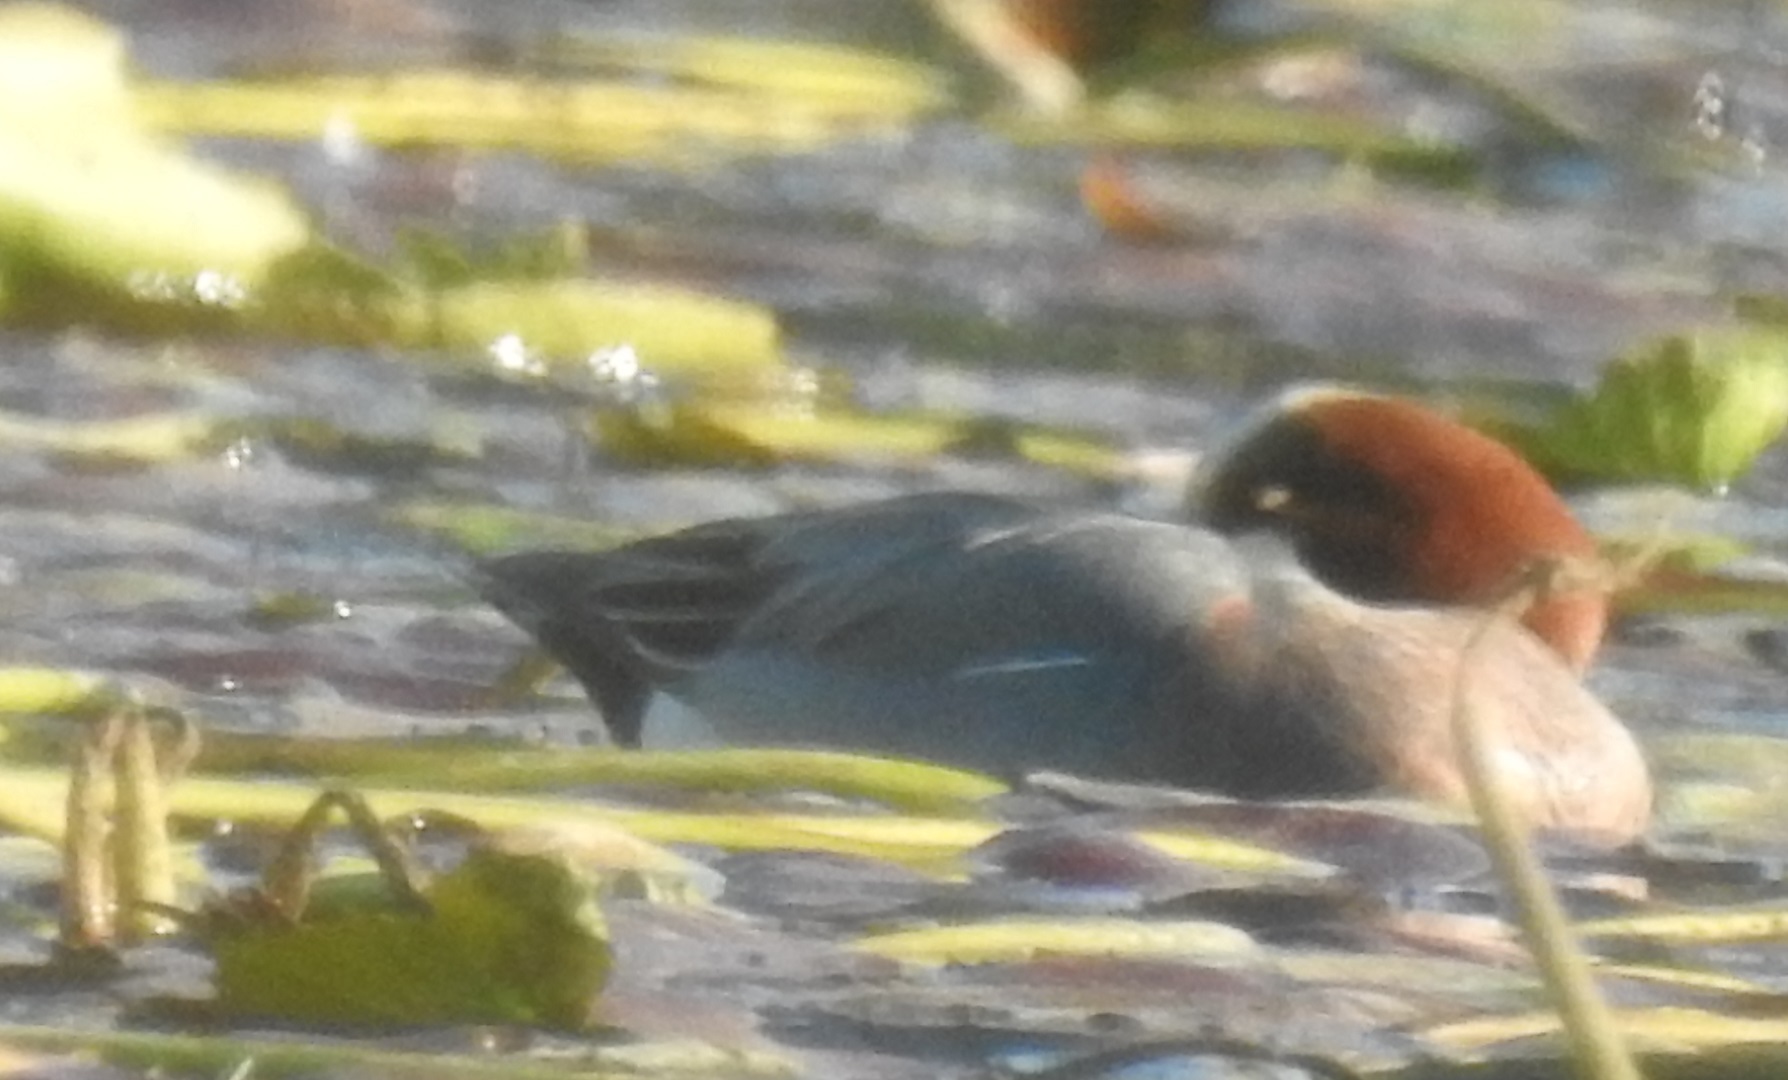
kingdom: Animalia
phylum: Chordata
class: Aves
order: Anseriformes
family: Anatidae
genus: Mareca
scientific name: Mareca penelope
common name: Eurasian wigeon
